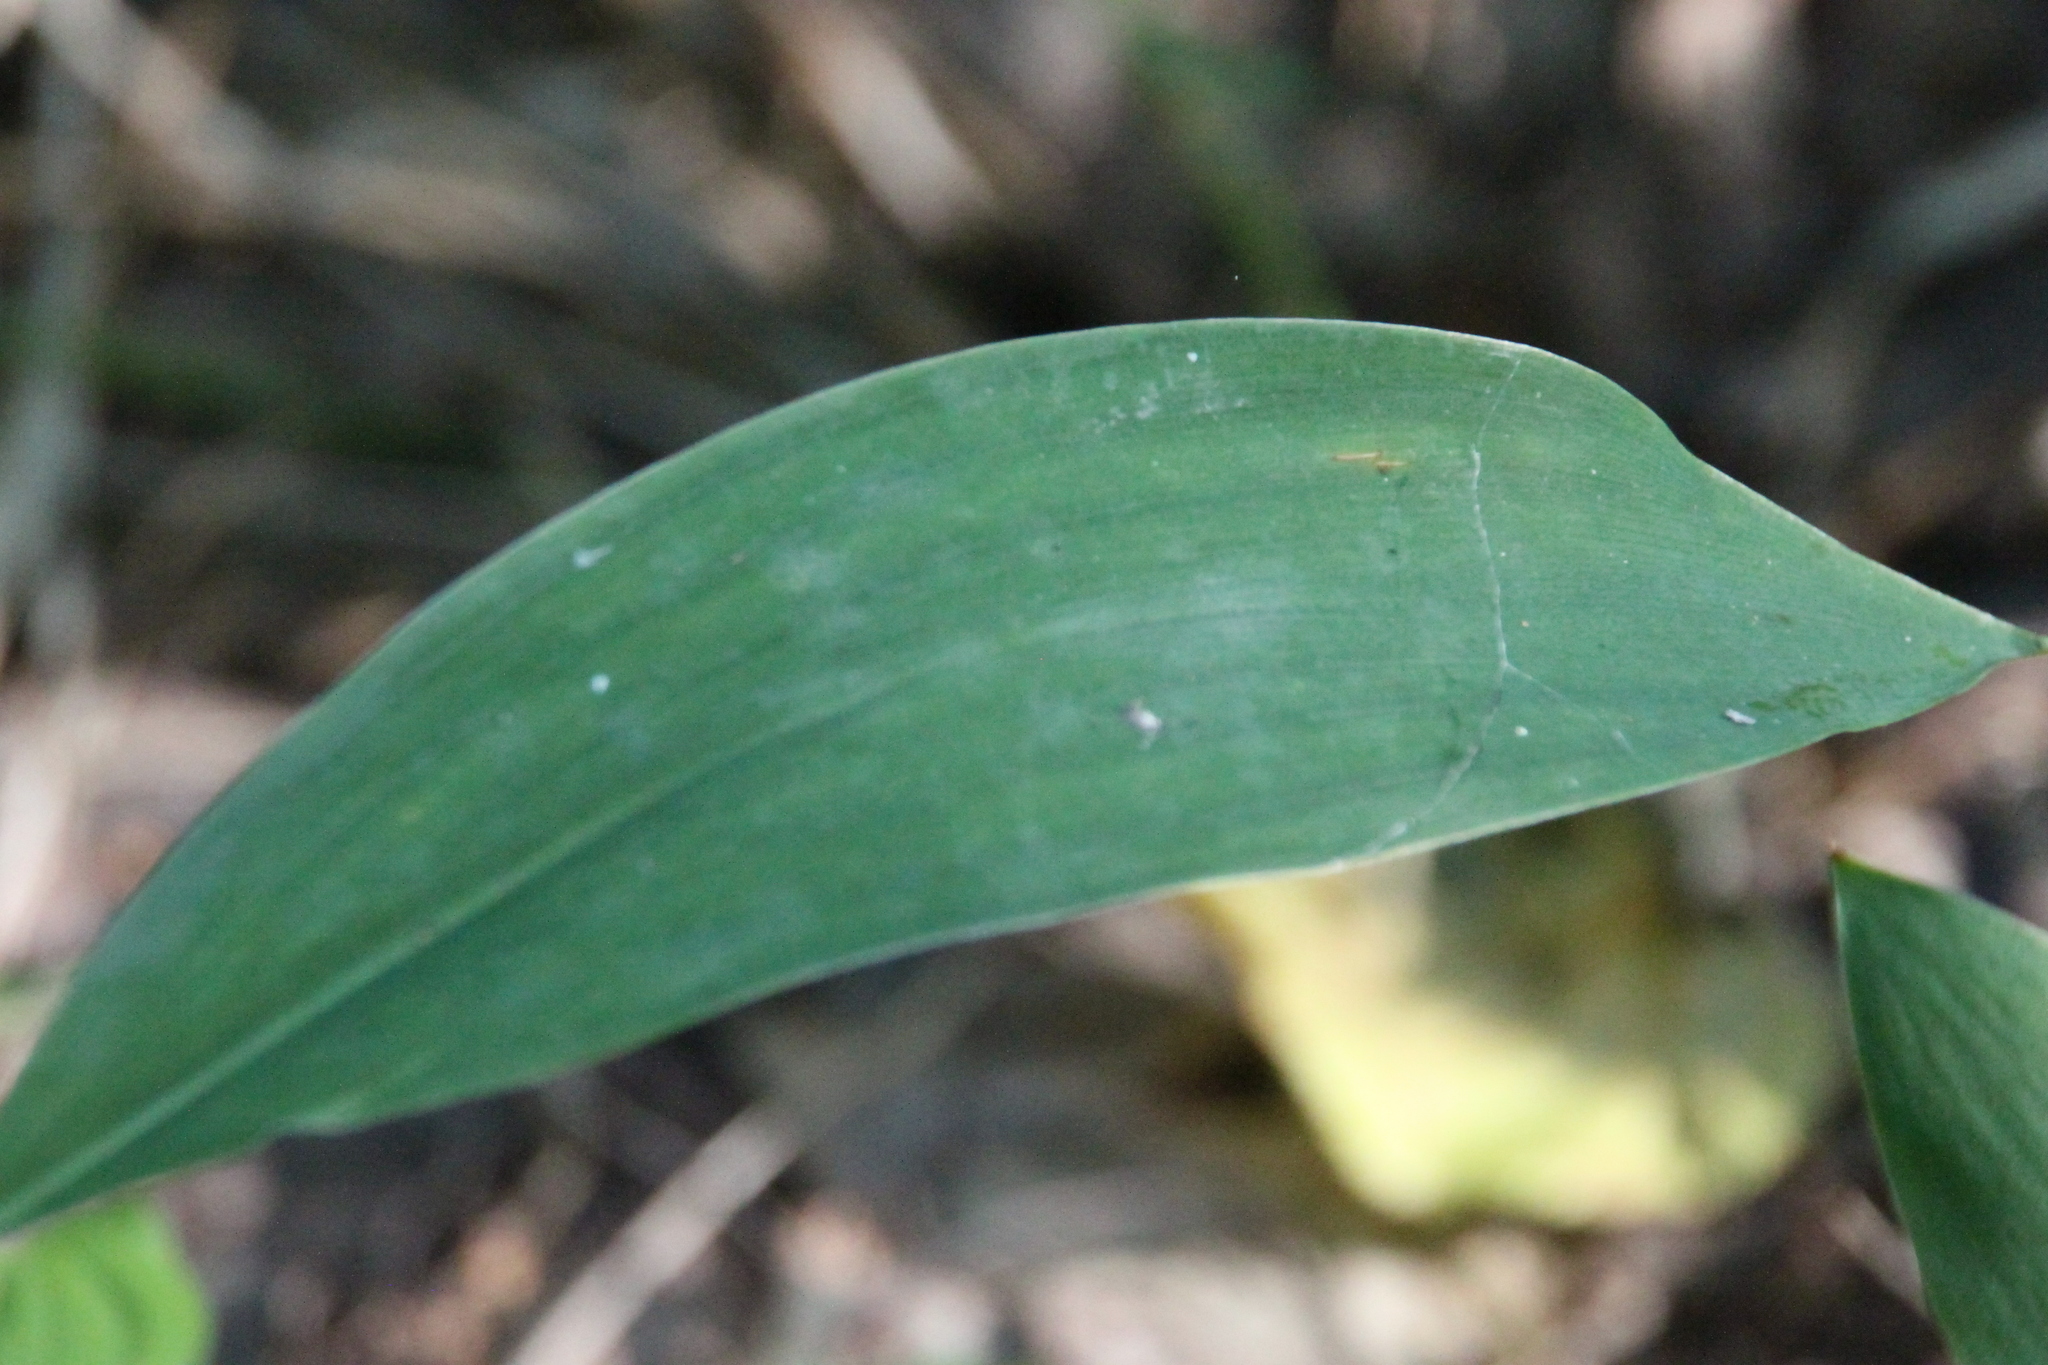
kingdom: Plantae
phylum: Tracheophyta
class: Liliopsida
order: Asparagales
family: Asparagaceae
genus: Convallaria
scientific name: Convallaria majalis
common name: Lily-of-the-valley
